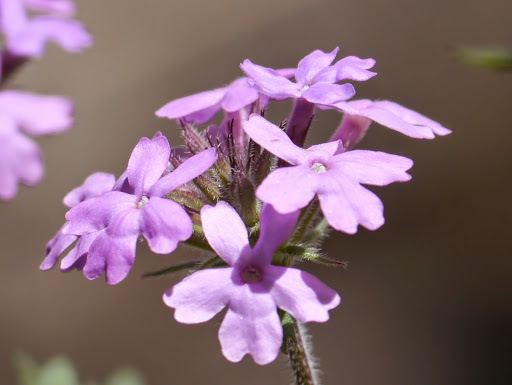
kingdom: Plantae
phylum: Tracheophyta
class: Magnoliopsida
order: Lamiales
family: Verbenaceae
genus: Verbena
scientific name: Verbena chiricahensis
